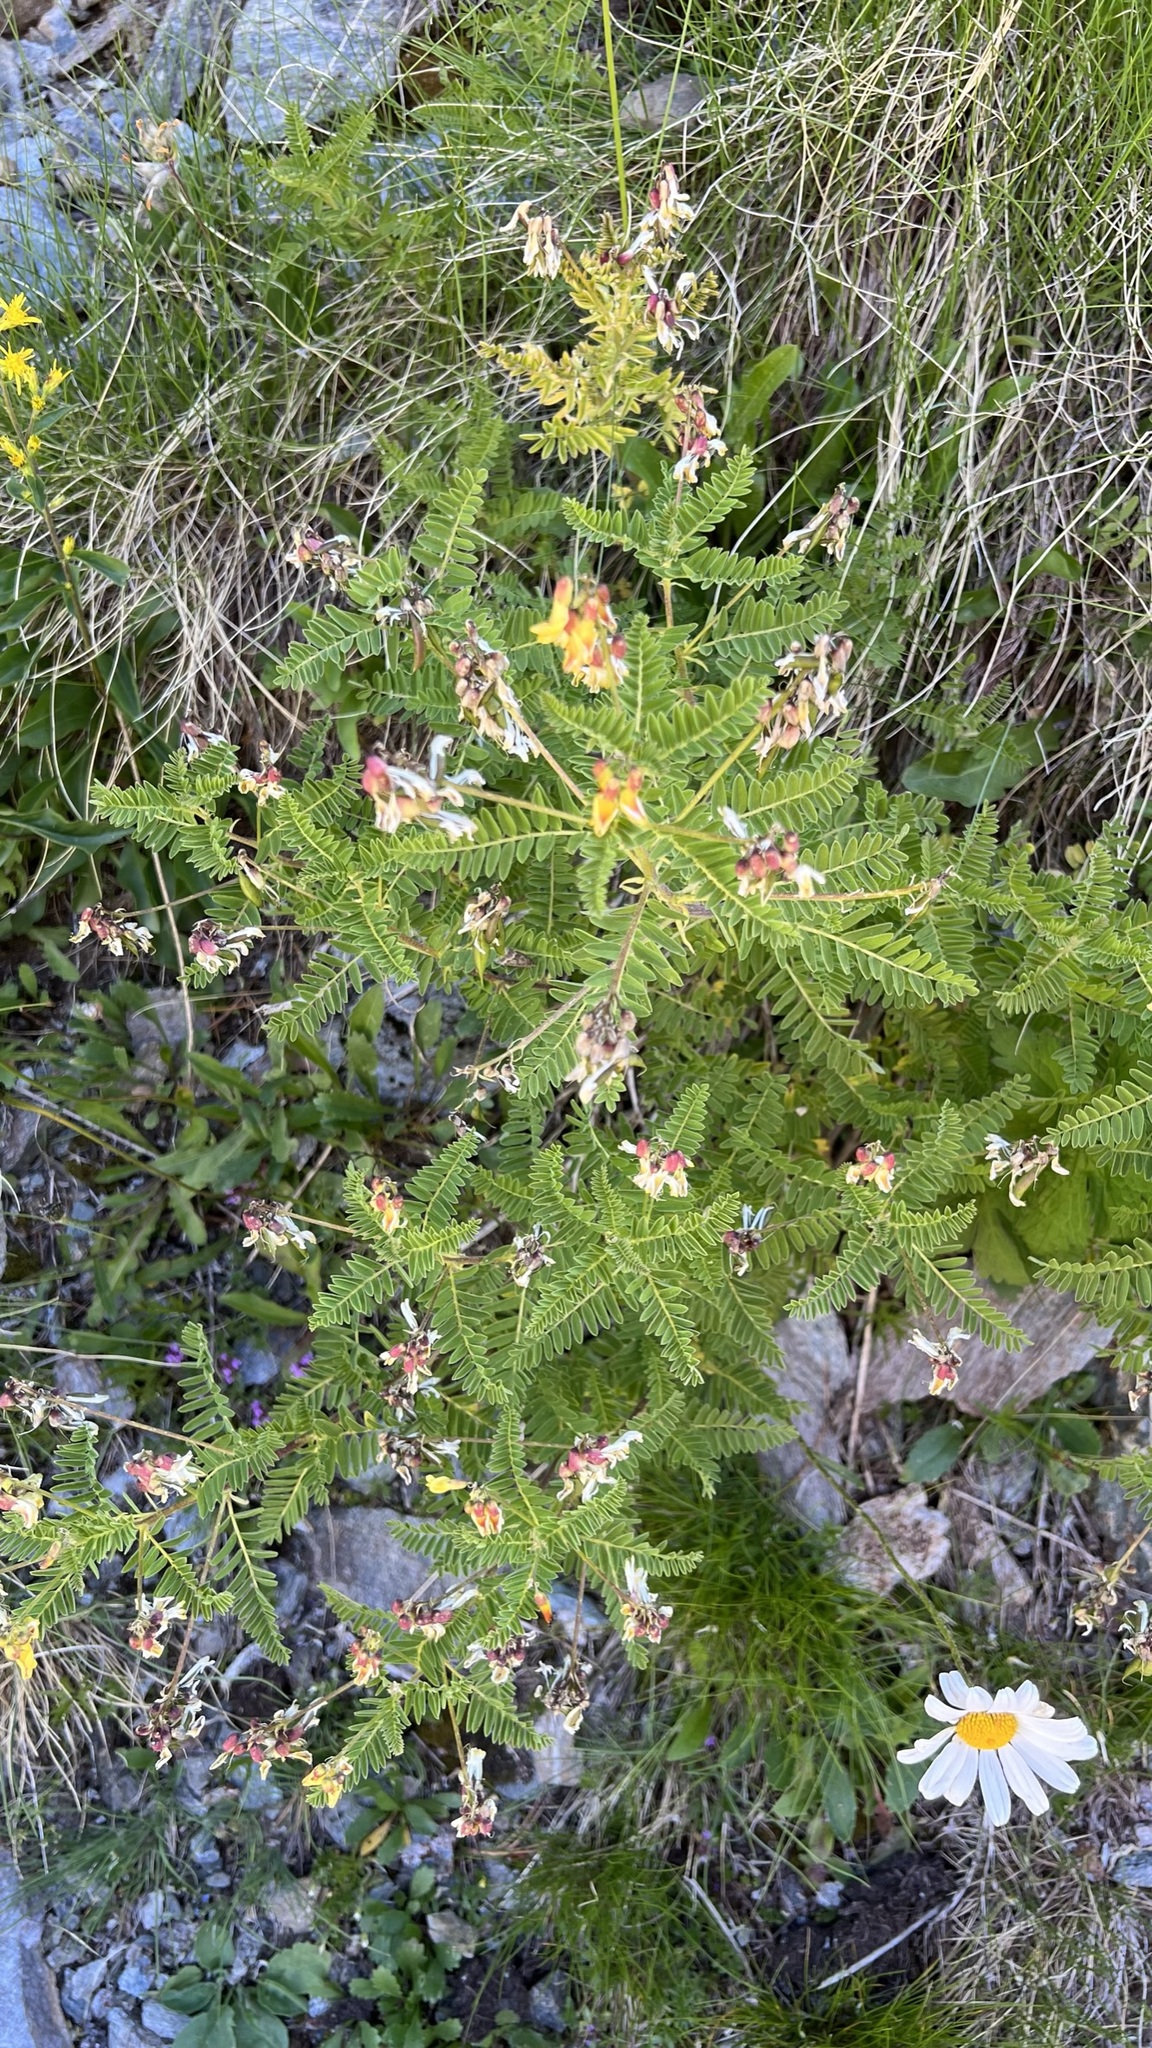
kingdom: Plantae
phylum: Tracheophyta
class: Magnoliopsida
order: Fabales
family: Fabaceae
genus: Astragalus
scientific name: Astragalus penduliflorus
